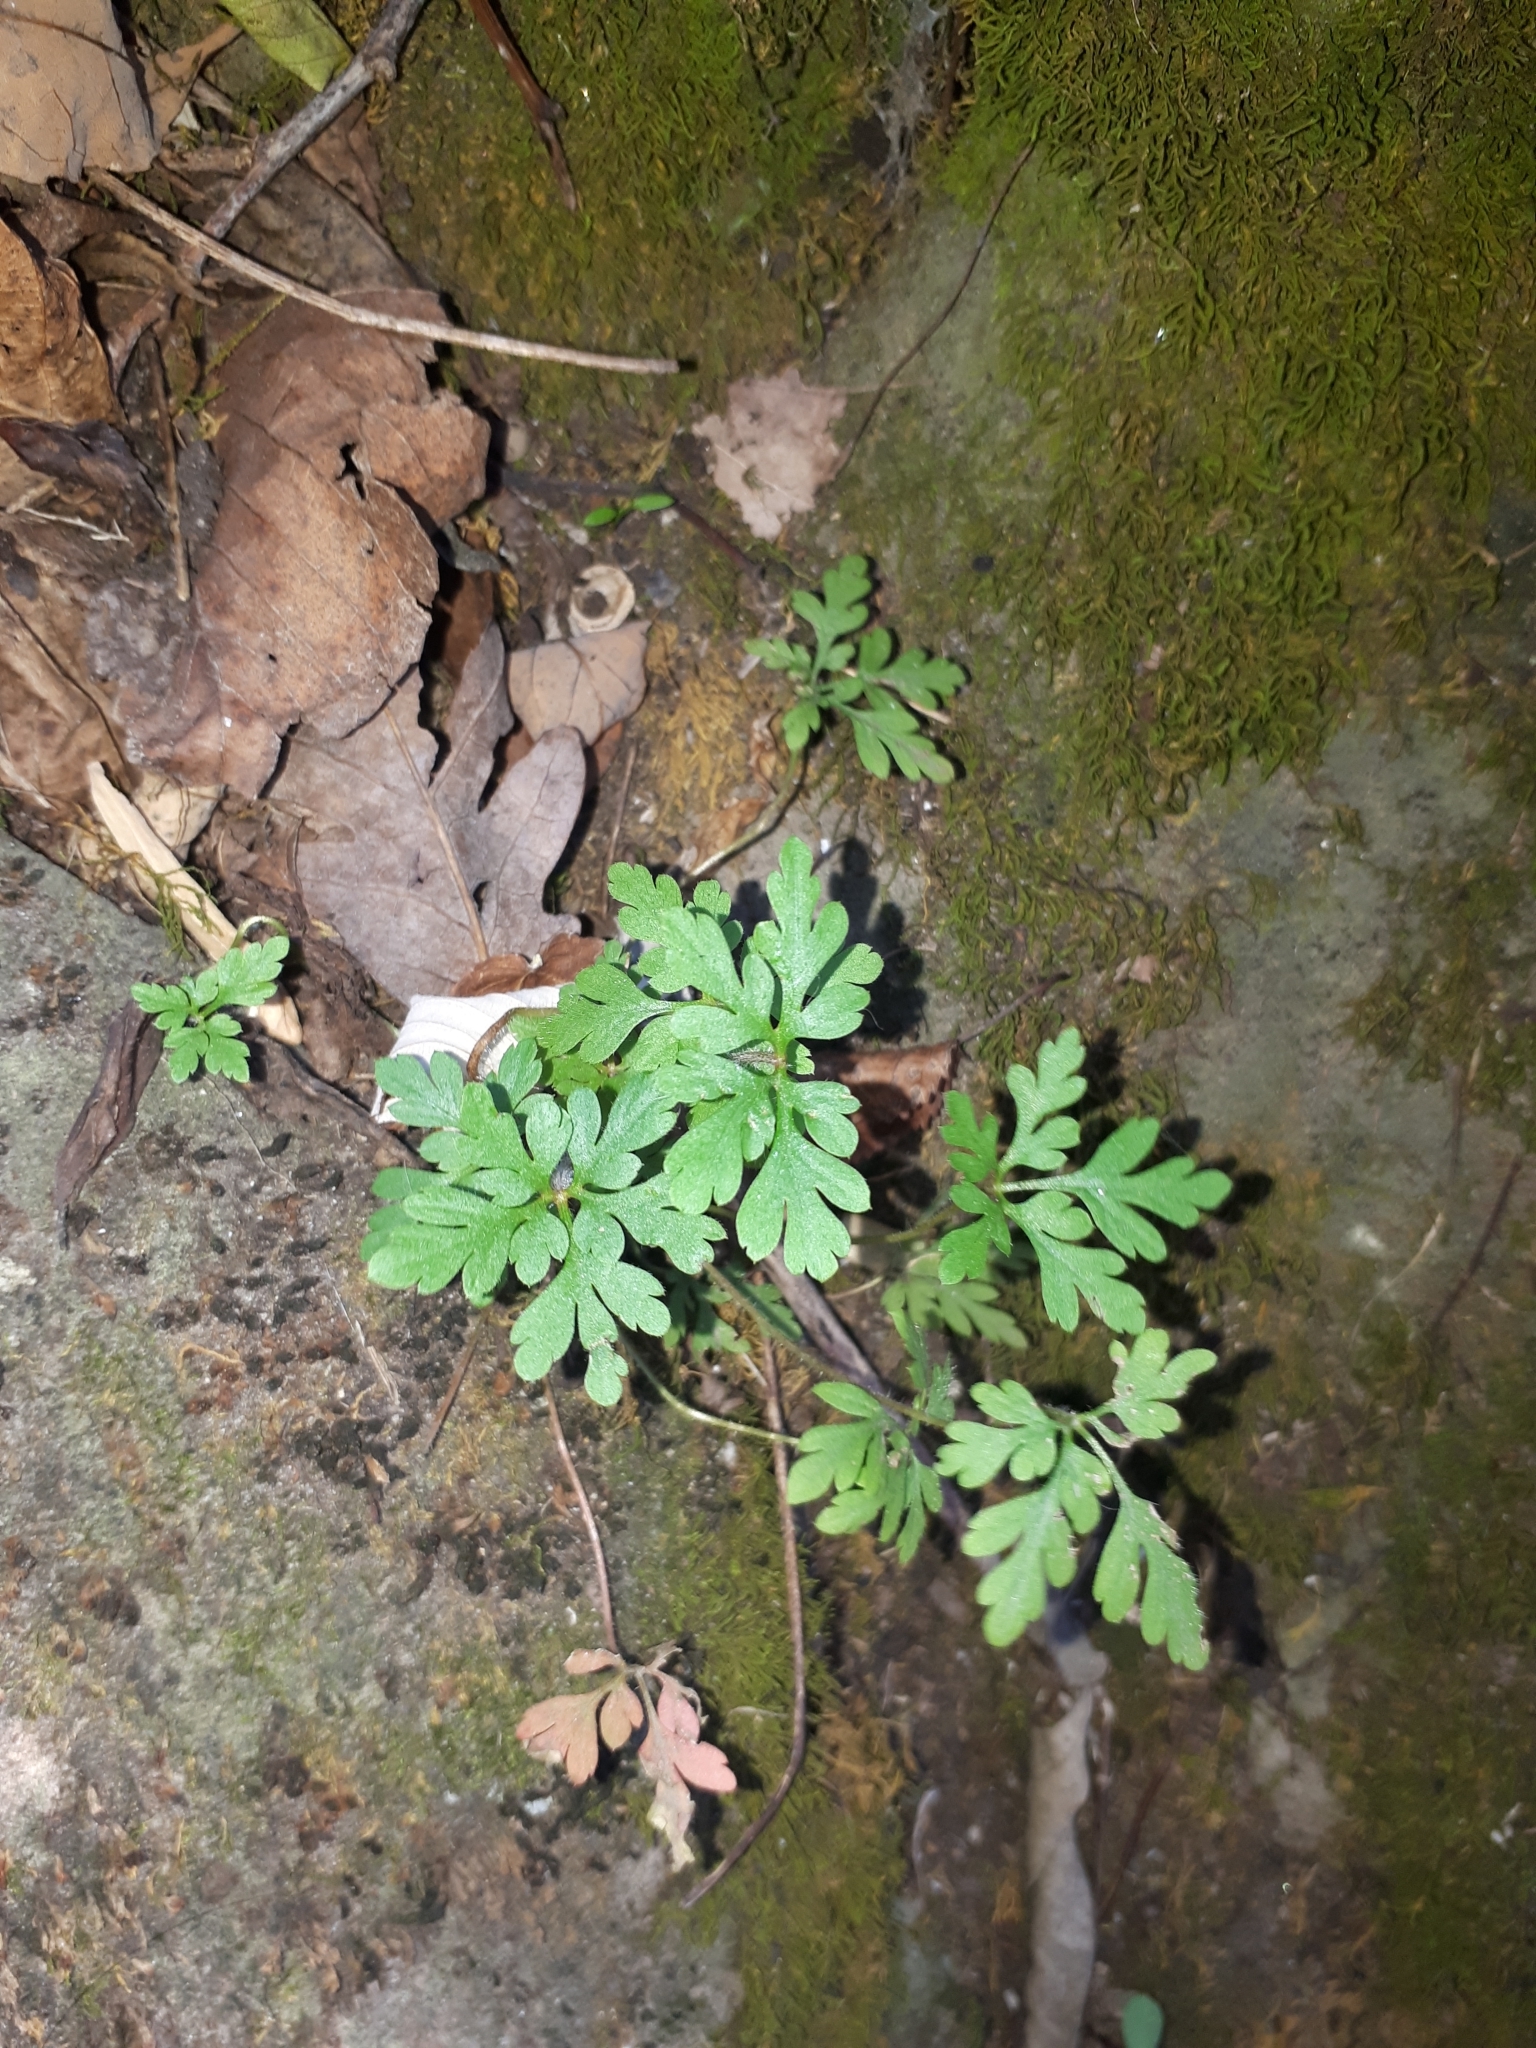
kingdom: Plantae
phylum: Tracheophyta
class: Magnoliopsida
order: Geraniales
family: Geraniaceae
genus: Geranium
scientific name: Geranium robertianum
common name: Herb-robert
